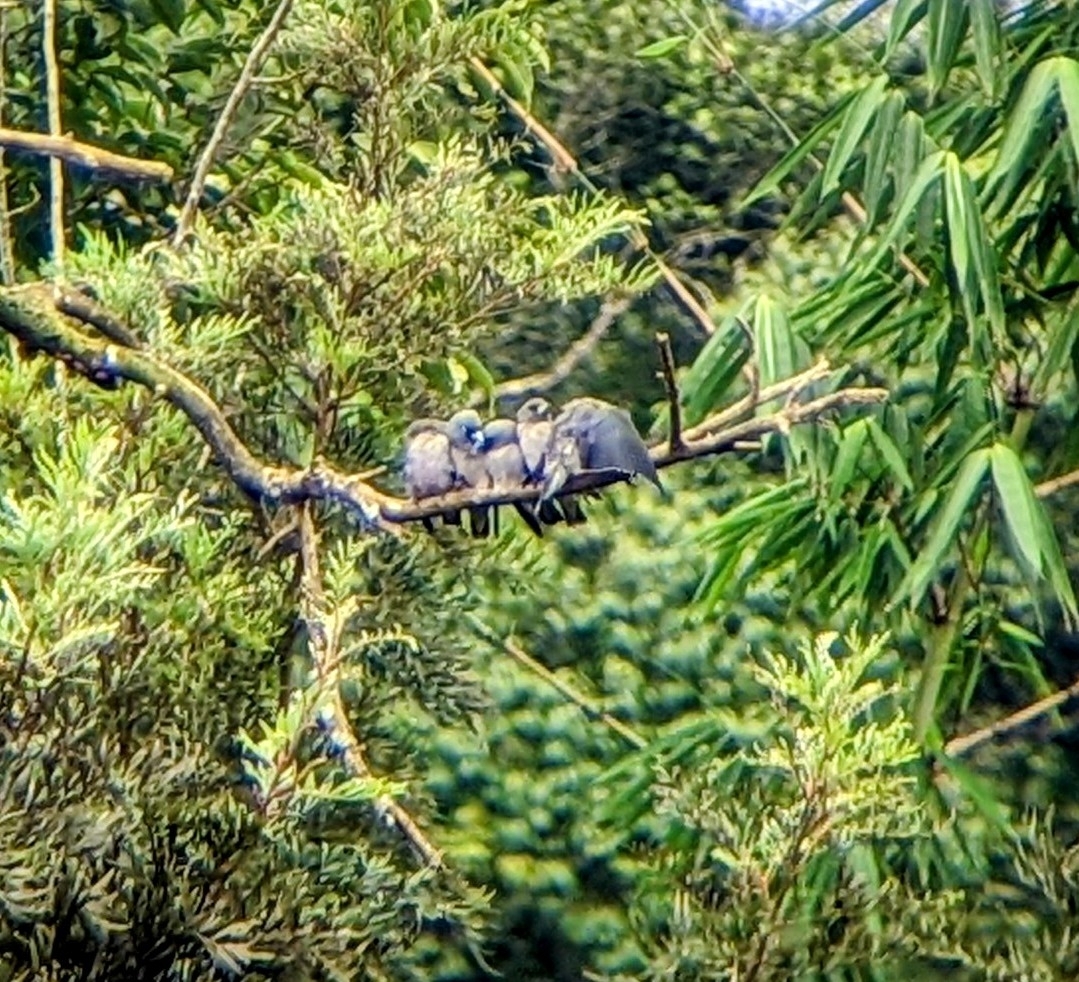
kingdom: Animalia
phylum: Chordata
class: Aves
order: Passeriformes
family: Artamidae
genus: Artamus
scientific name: Artamus fuscus
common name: Ashy woodswallow
